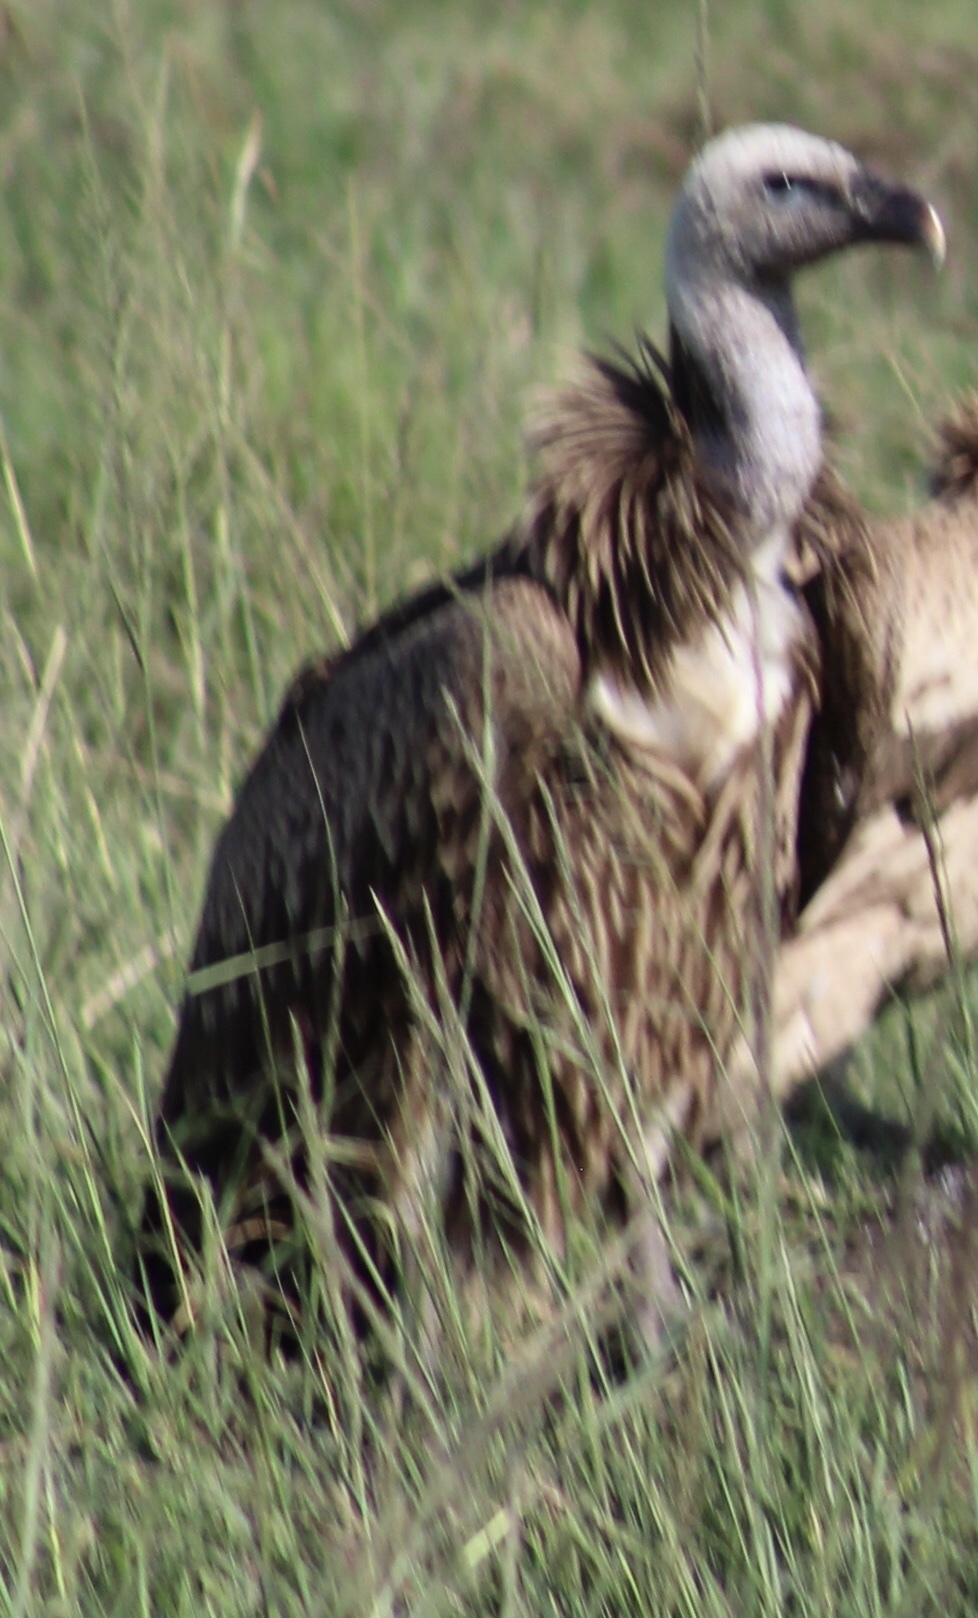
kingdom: Animalia
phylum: Chordata
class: Aves
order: Accipitriformes
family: Accipitridae
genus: Gyps
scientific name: Gyps africanus
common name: White-backed vulture
